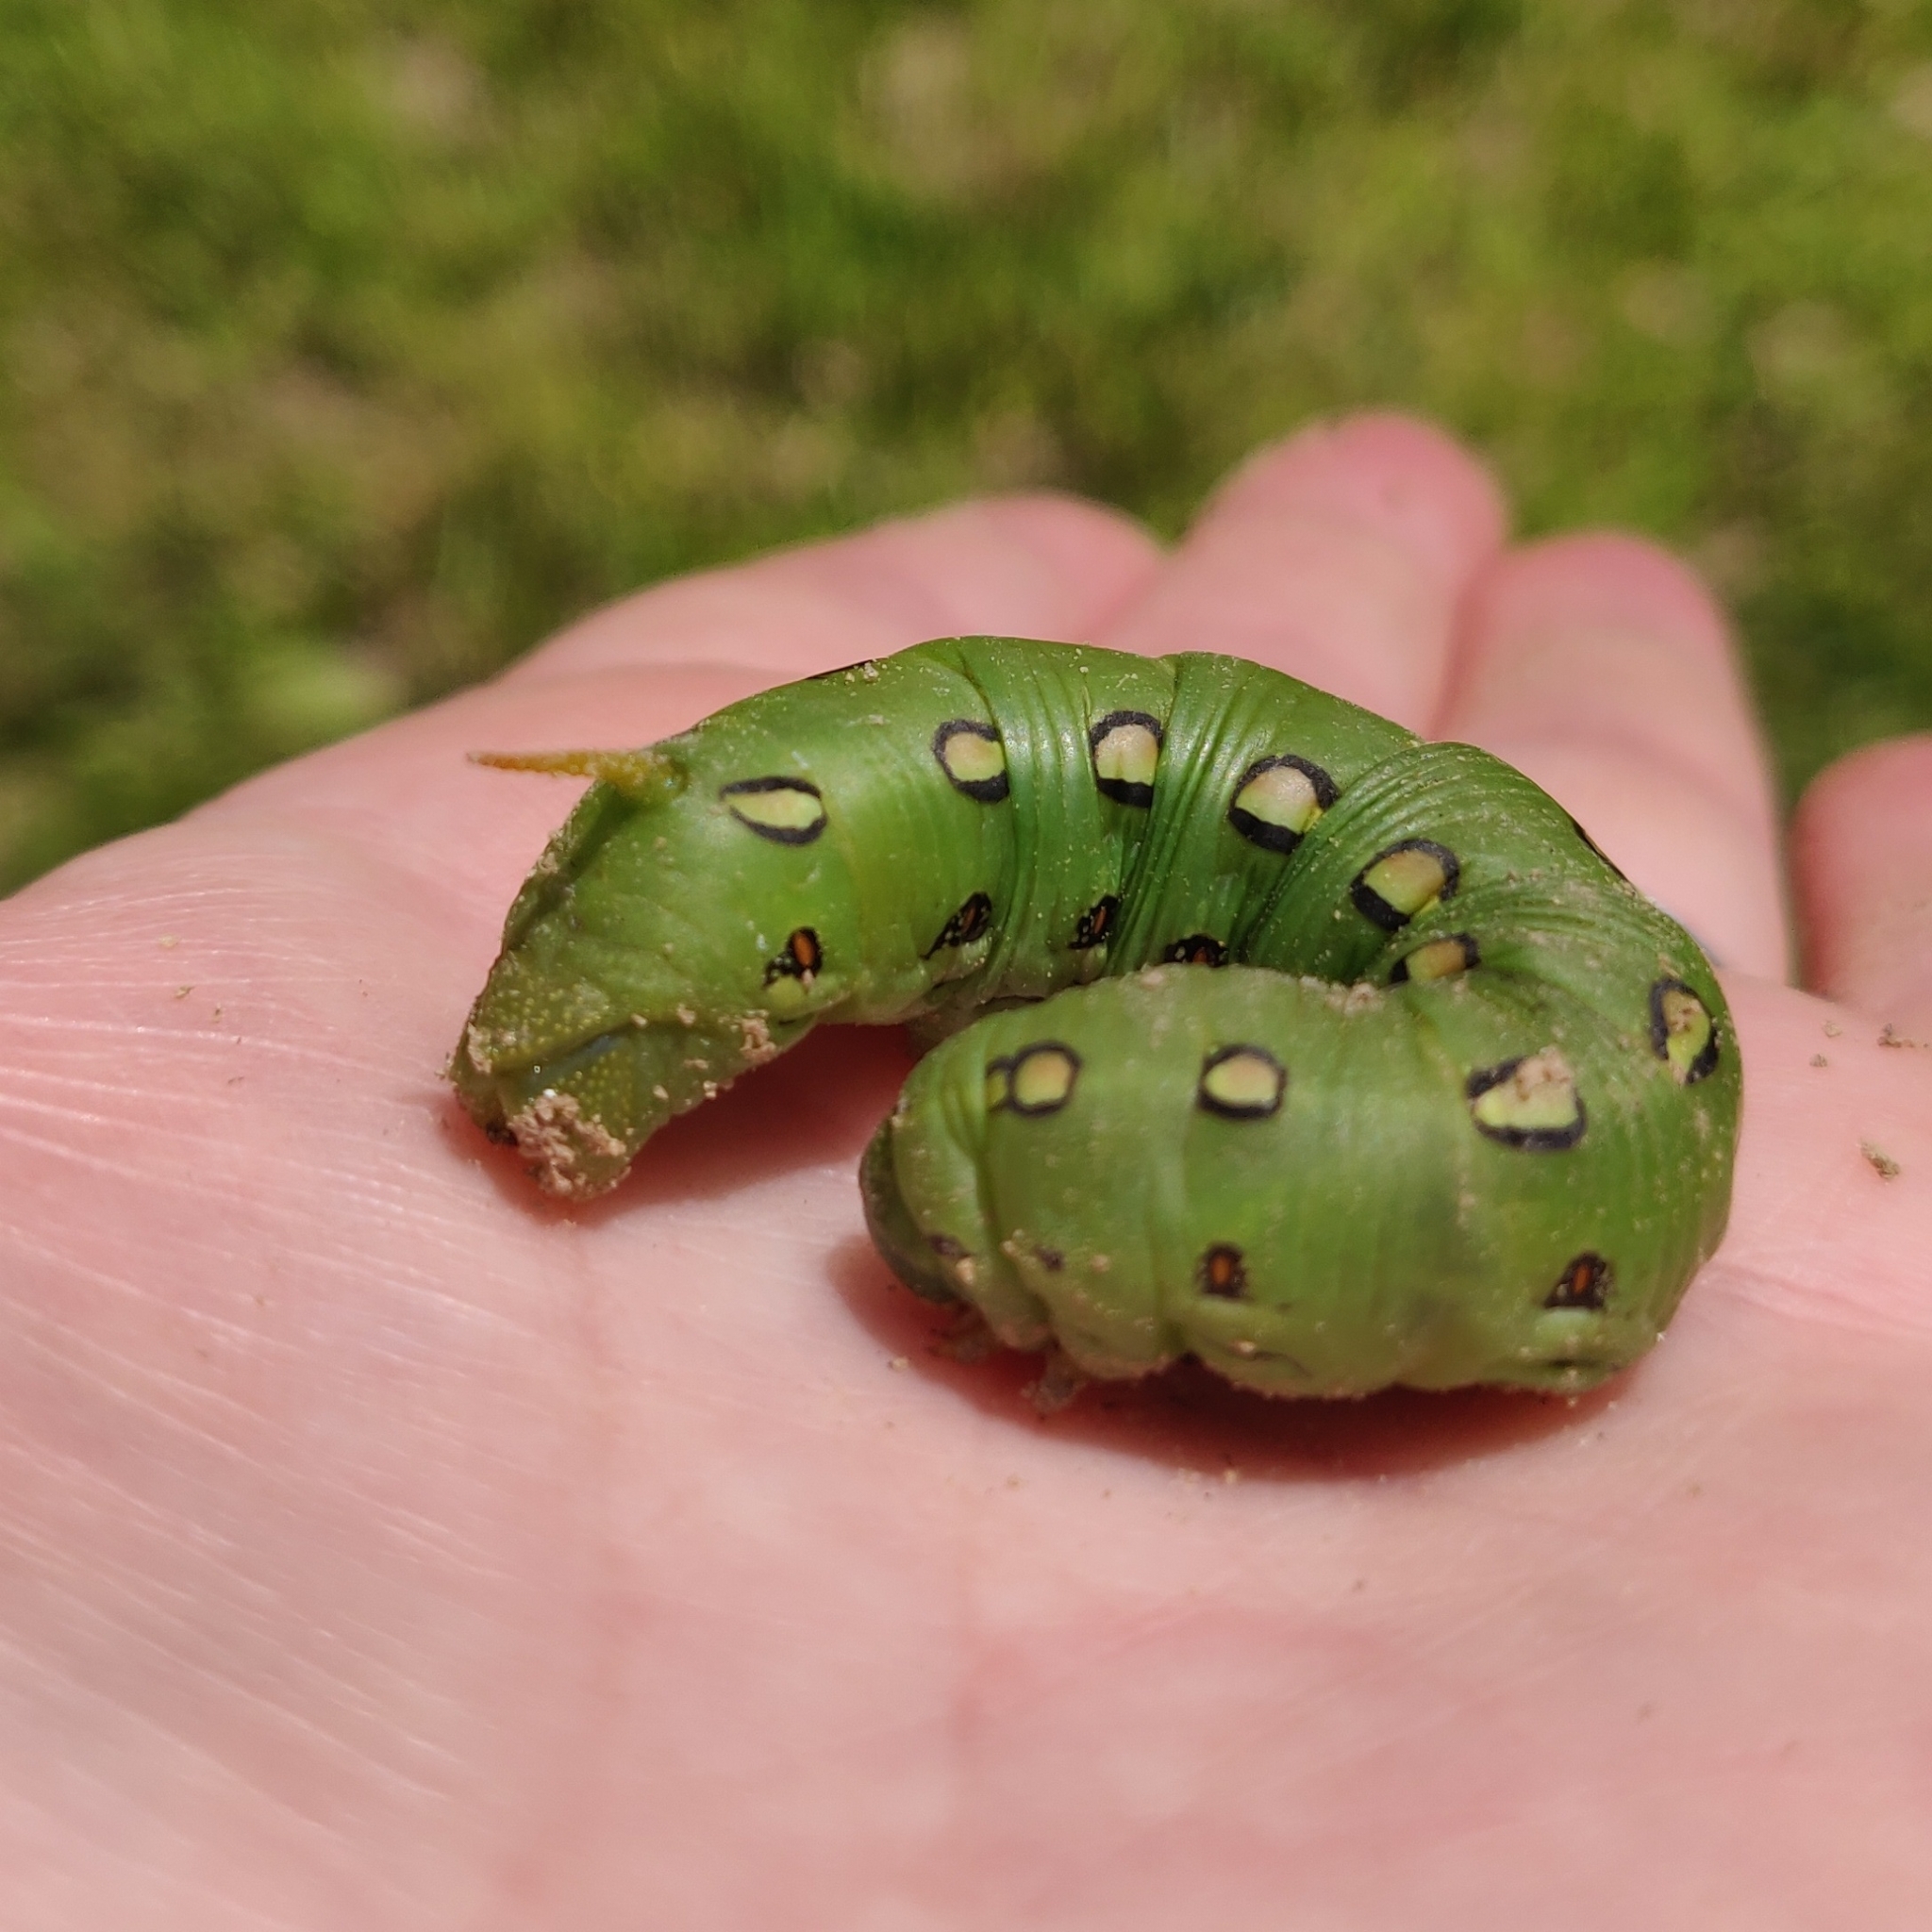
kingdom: Animalia
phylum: Arthropoda
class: Insecta
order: Lepidoptera
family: Sphingidae
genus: Hyles
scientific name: Hyles lineata
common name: White-lined sphinx
